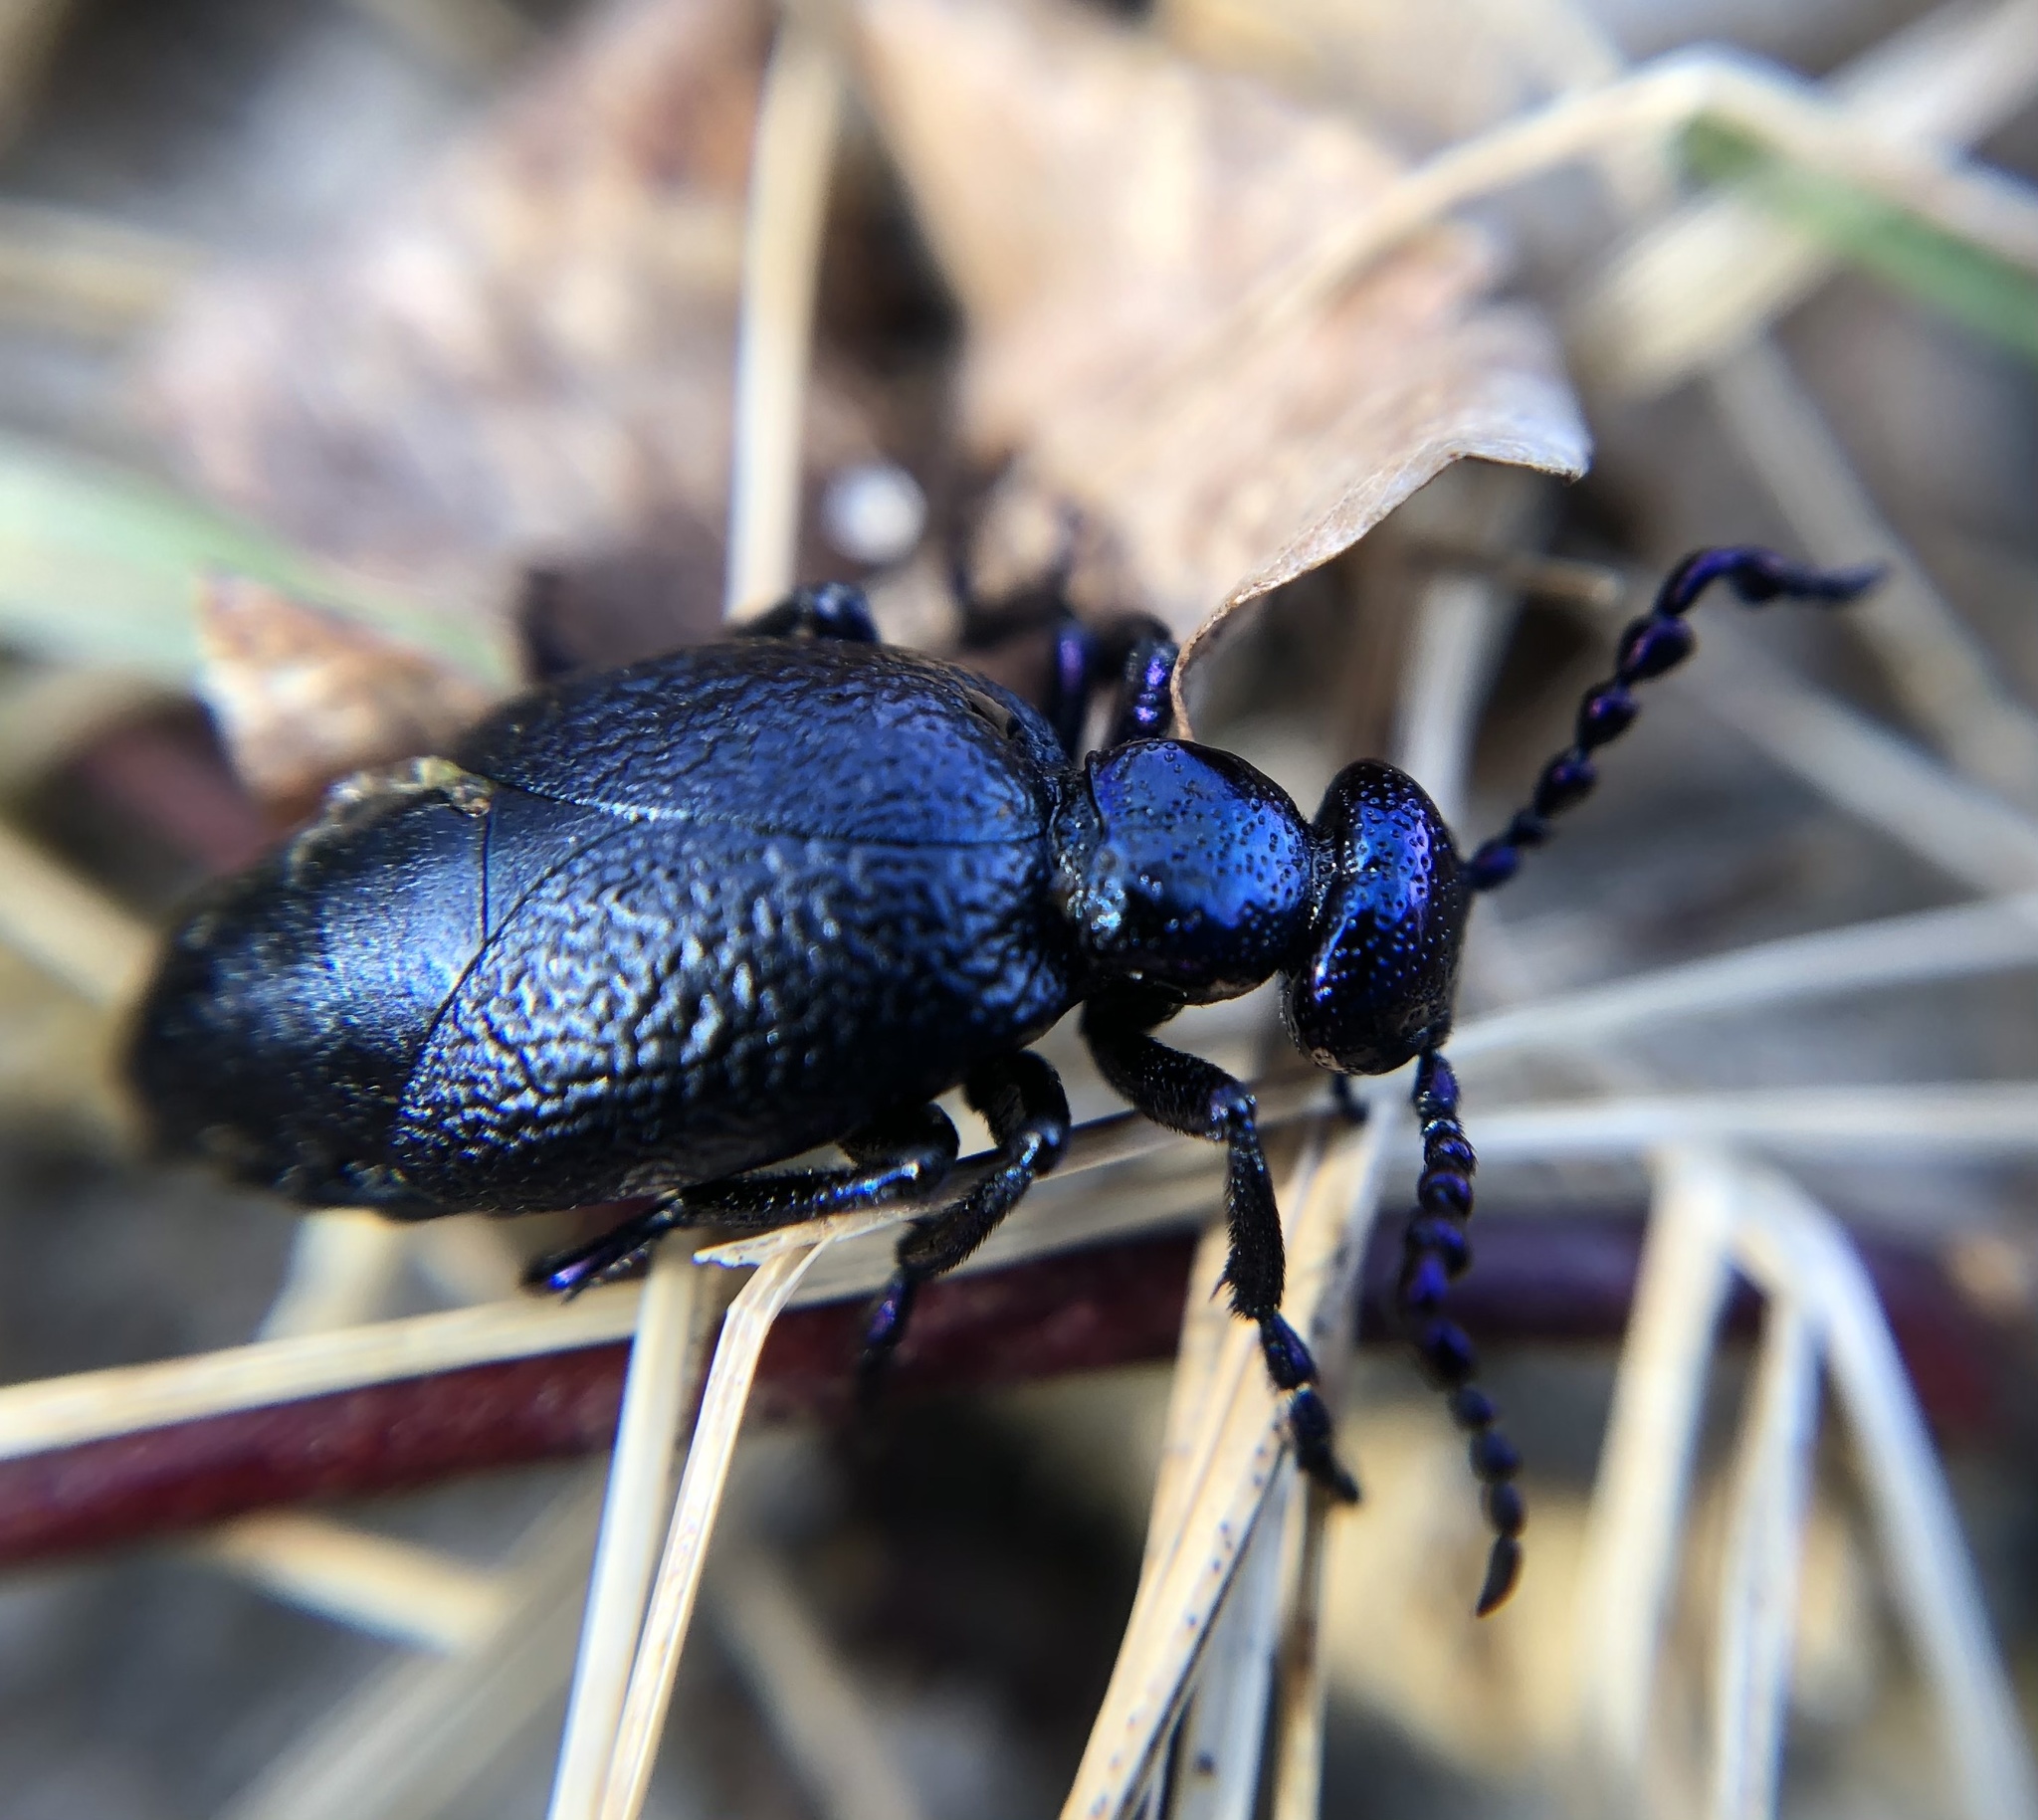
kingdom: Animalia
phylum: Arthropoda
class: Insecta
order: Coleoptera
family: Meloidae
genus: Meloe
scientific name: Meloe violaceus
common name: Violet oil-beetle
